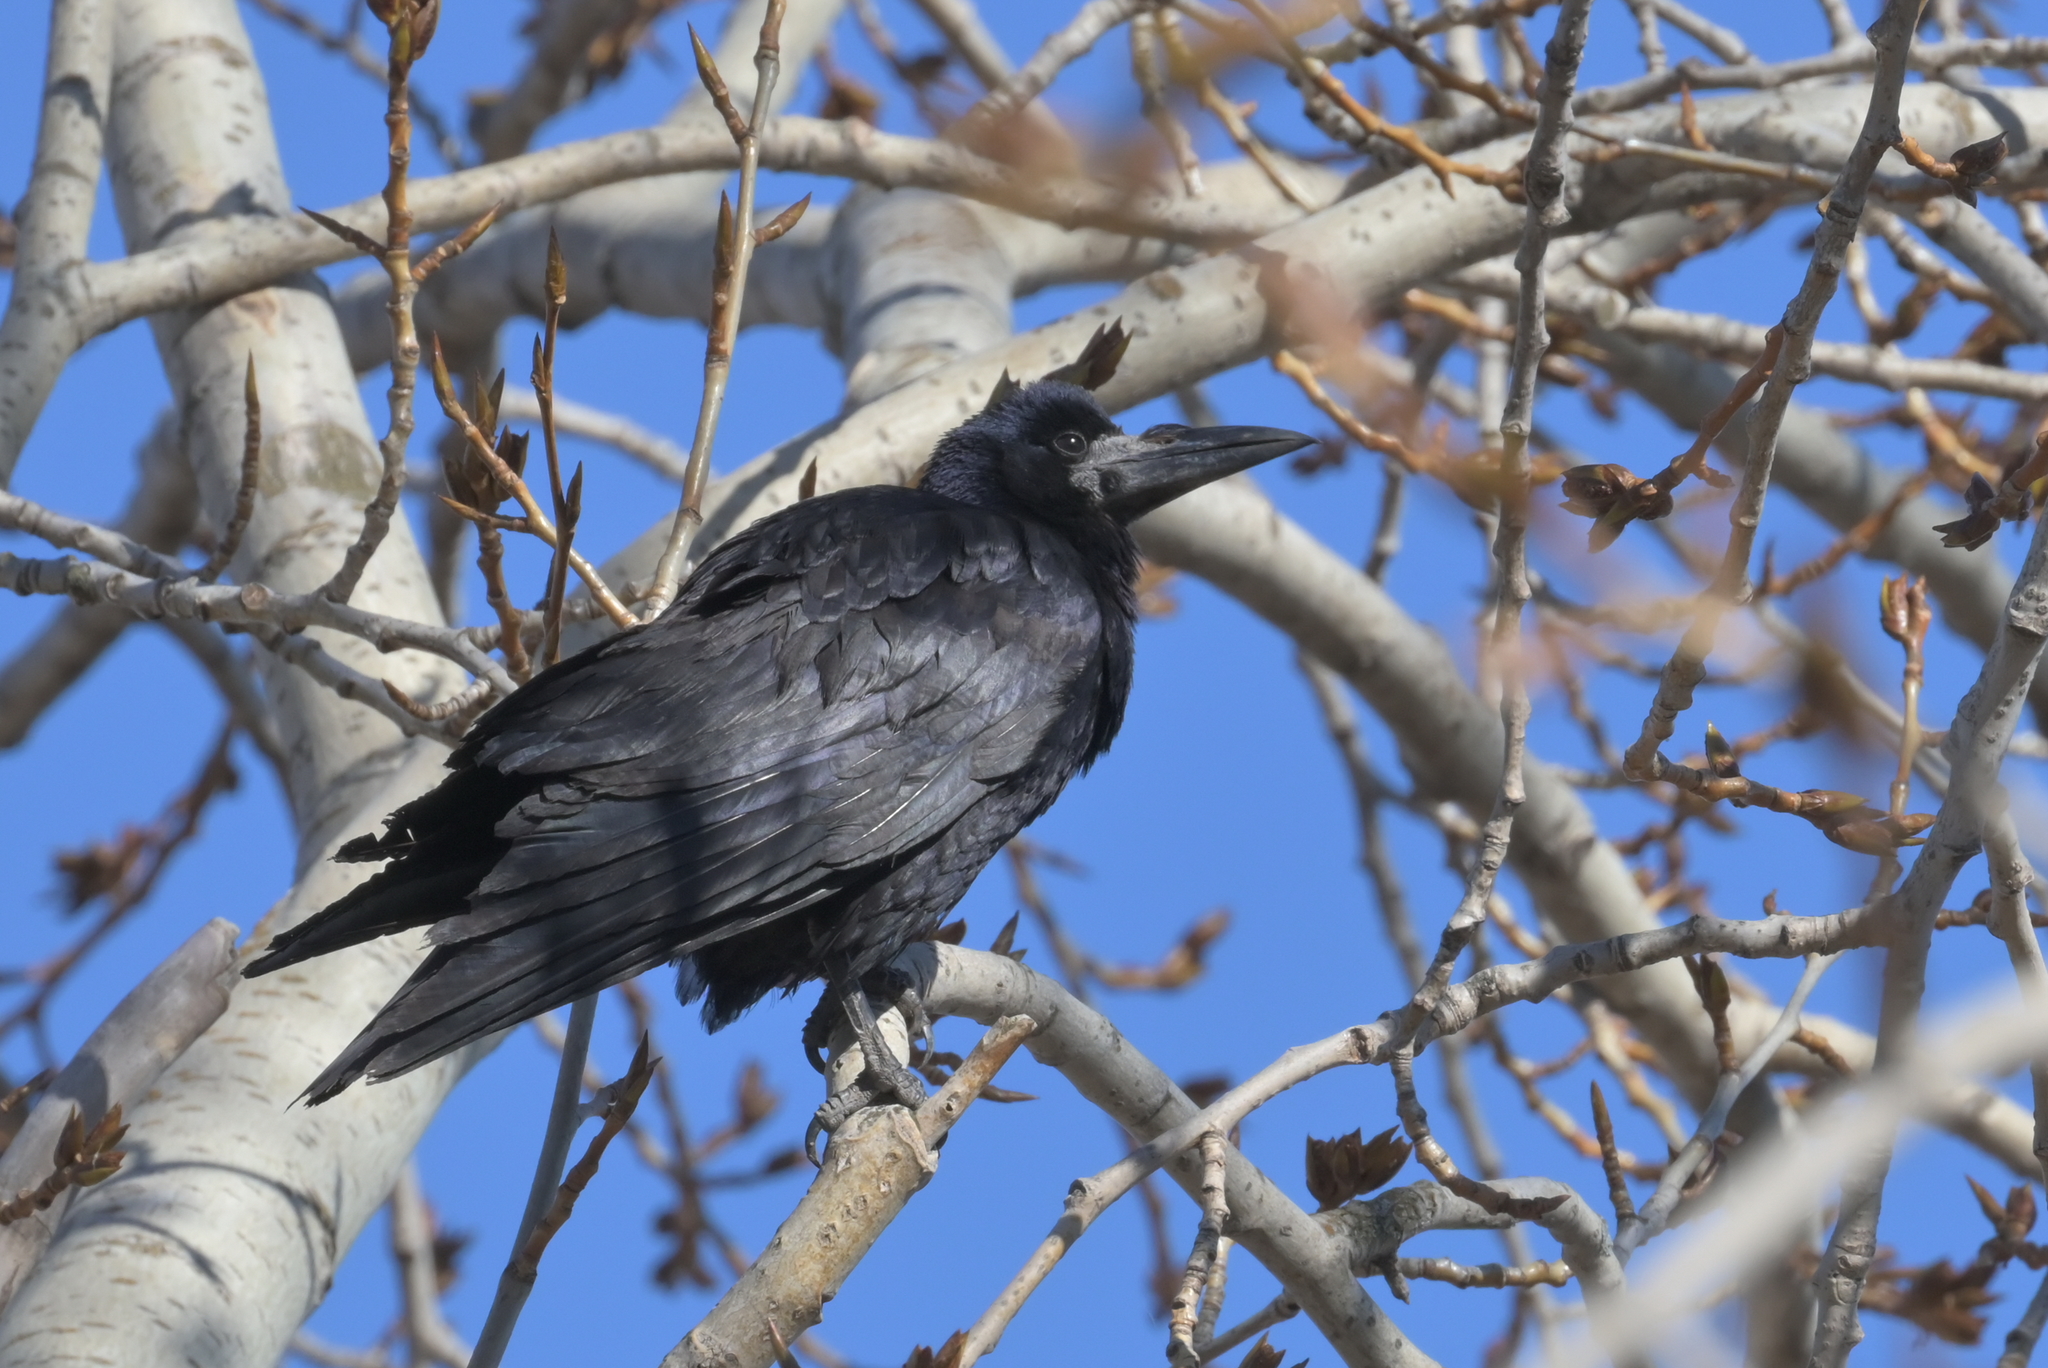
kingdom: Animalia
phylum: Chordata
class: Aves
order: Passeriformes
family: Corvidae
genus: Corvus
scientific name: Corvus frugilegus
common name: Rook
